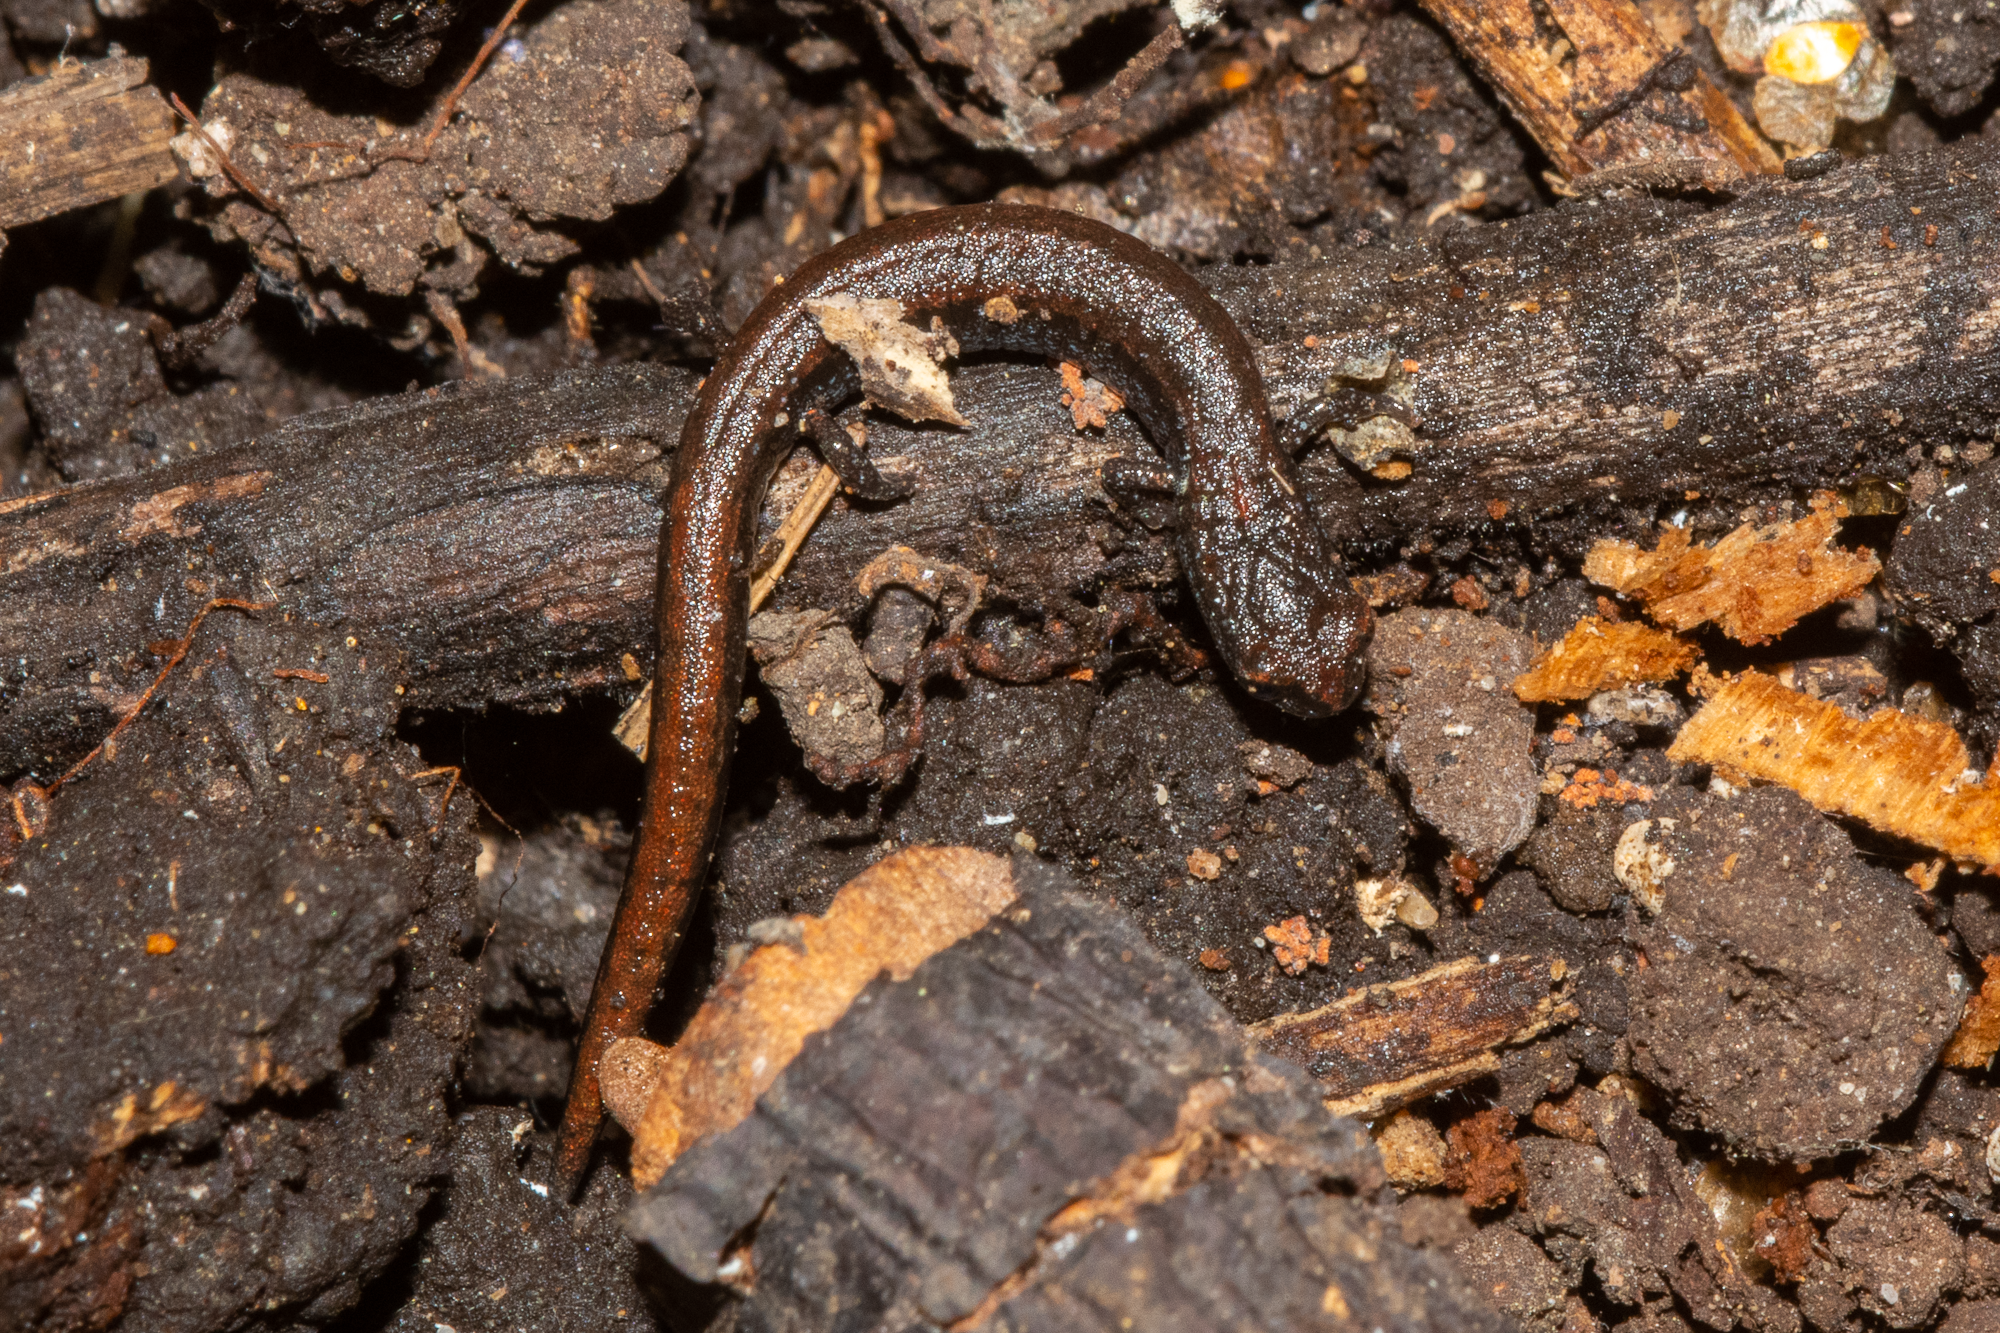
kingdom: Animalia
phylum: Chordata
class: Amphibia
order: Caudata
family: Plethodontidae
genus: Batrachoseps
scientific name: Batrachoseps attenuatus
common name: California slender salamander
